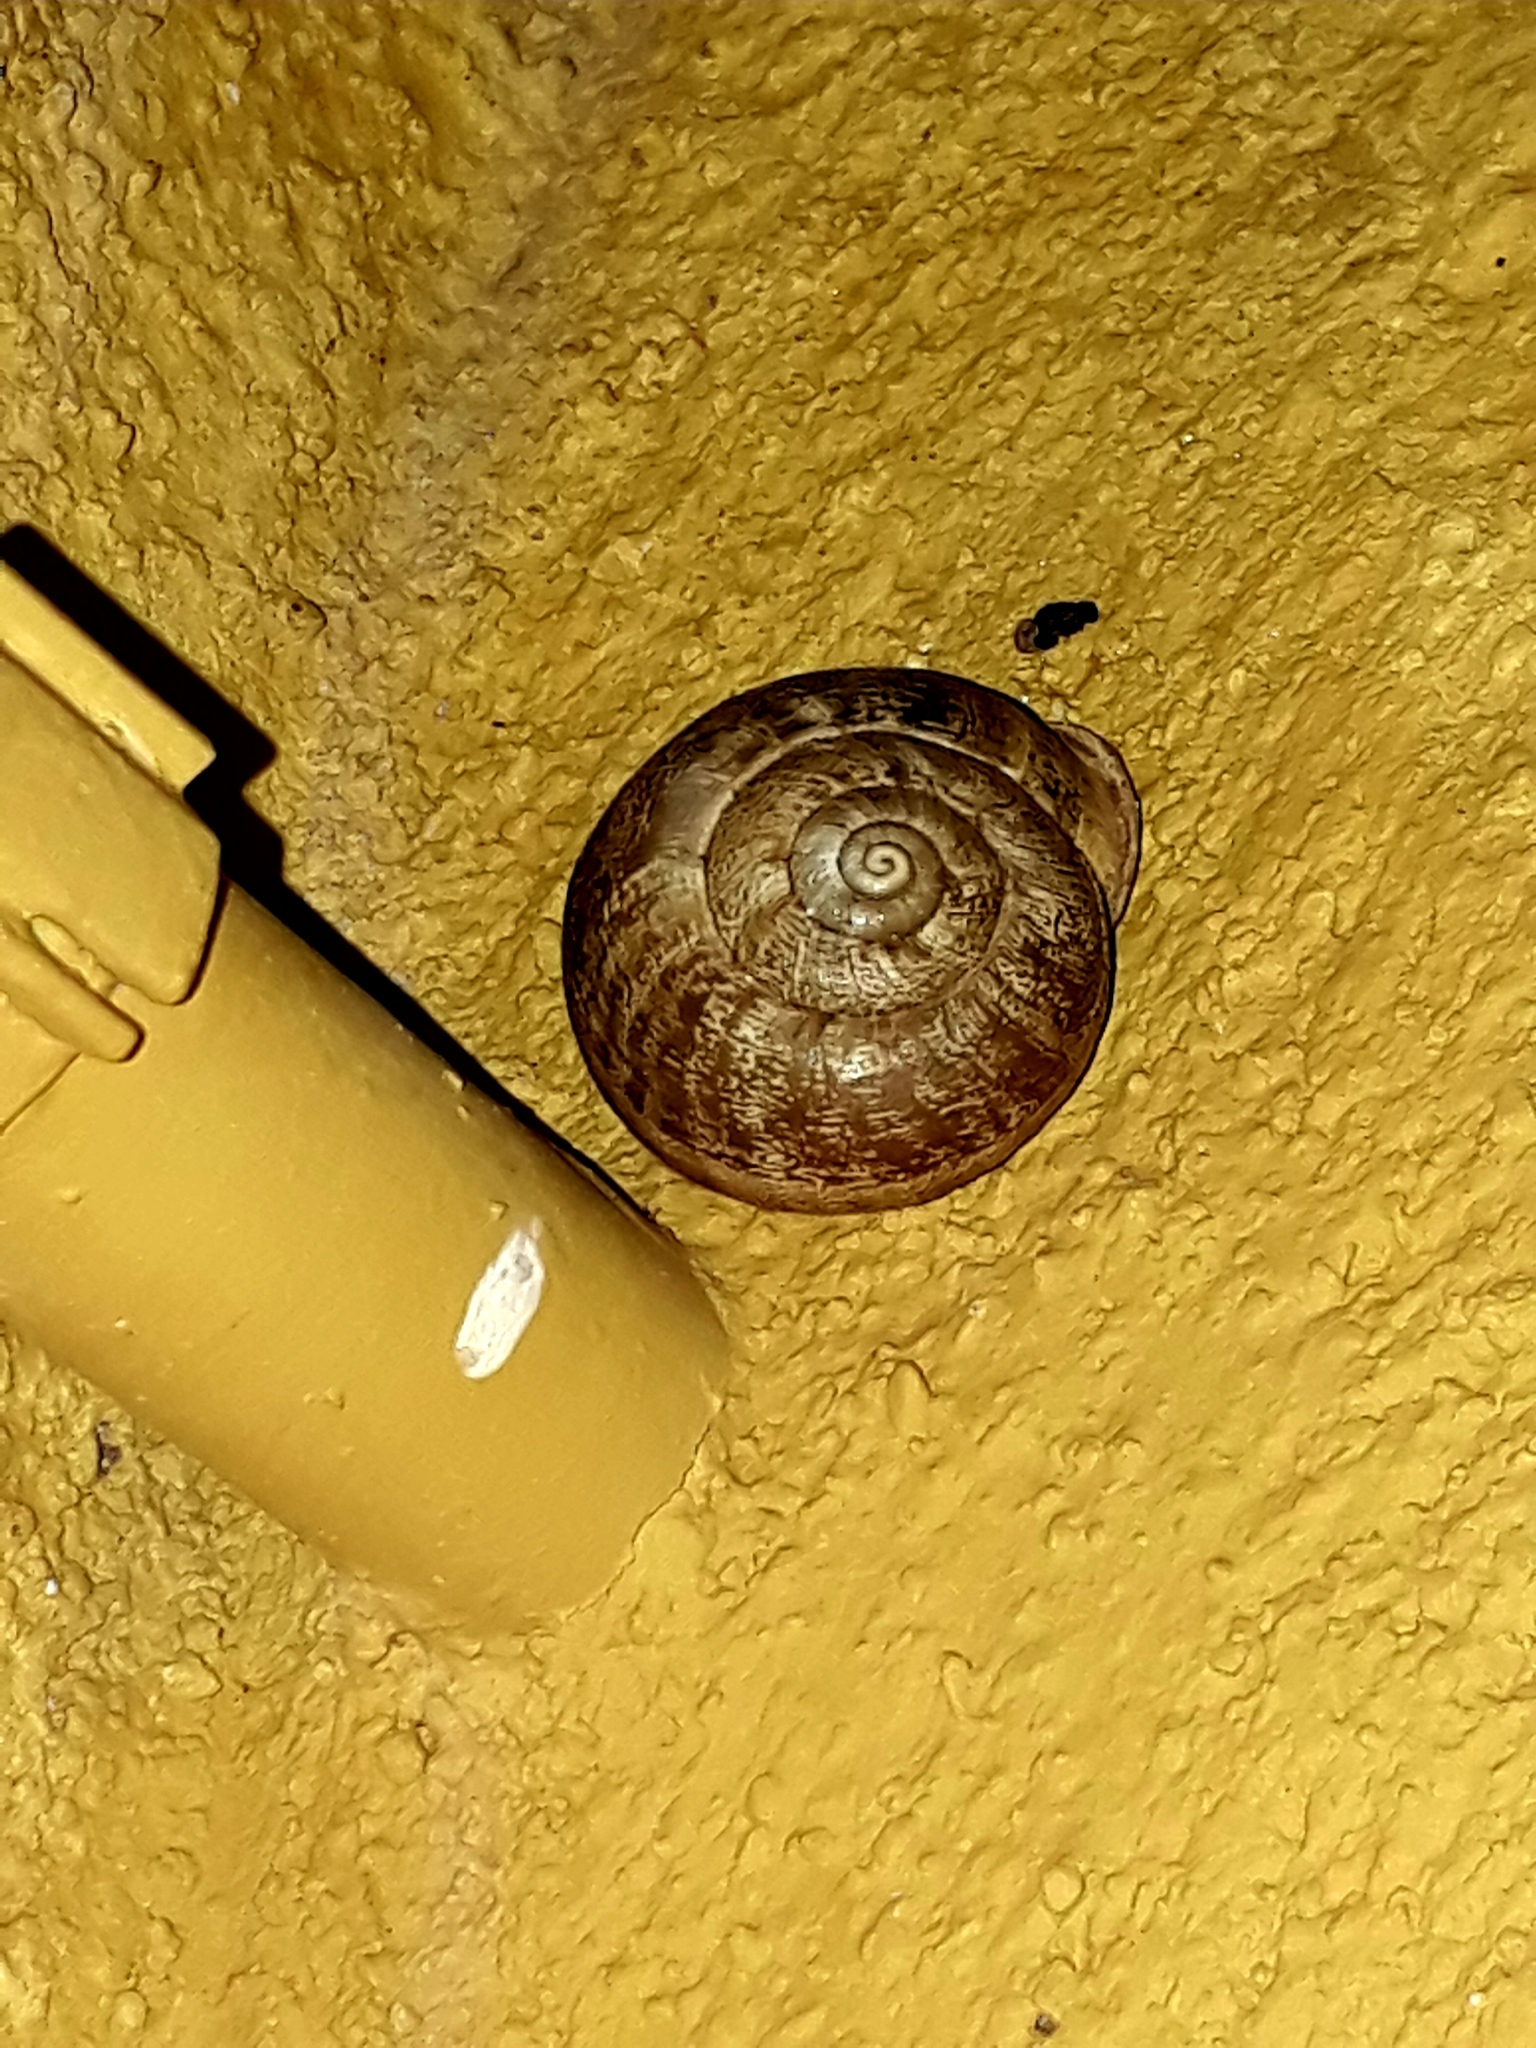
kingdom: Animalia
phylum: Mollusca
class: Gastropoda
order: Stylommatophora
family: Helicidae
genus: Eobania
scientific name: Eobania vermiculata
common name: Chocolateband snail
